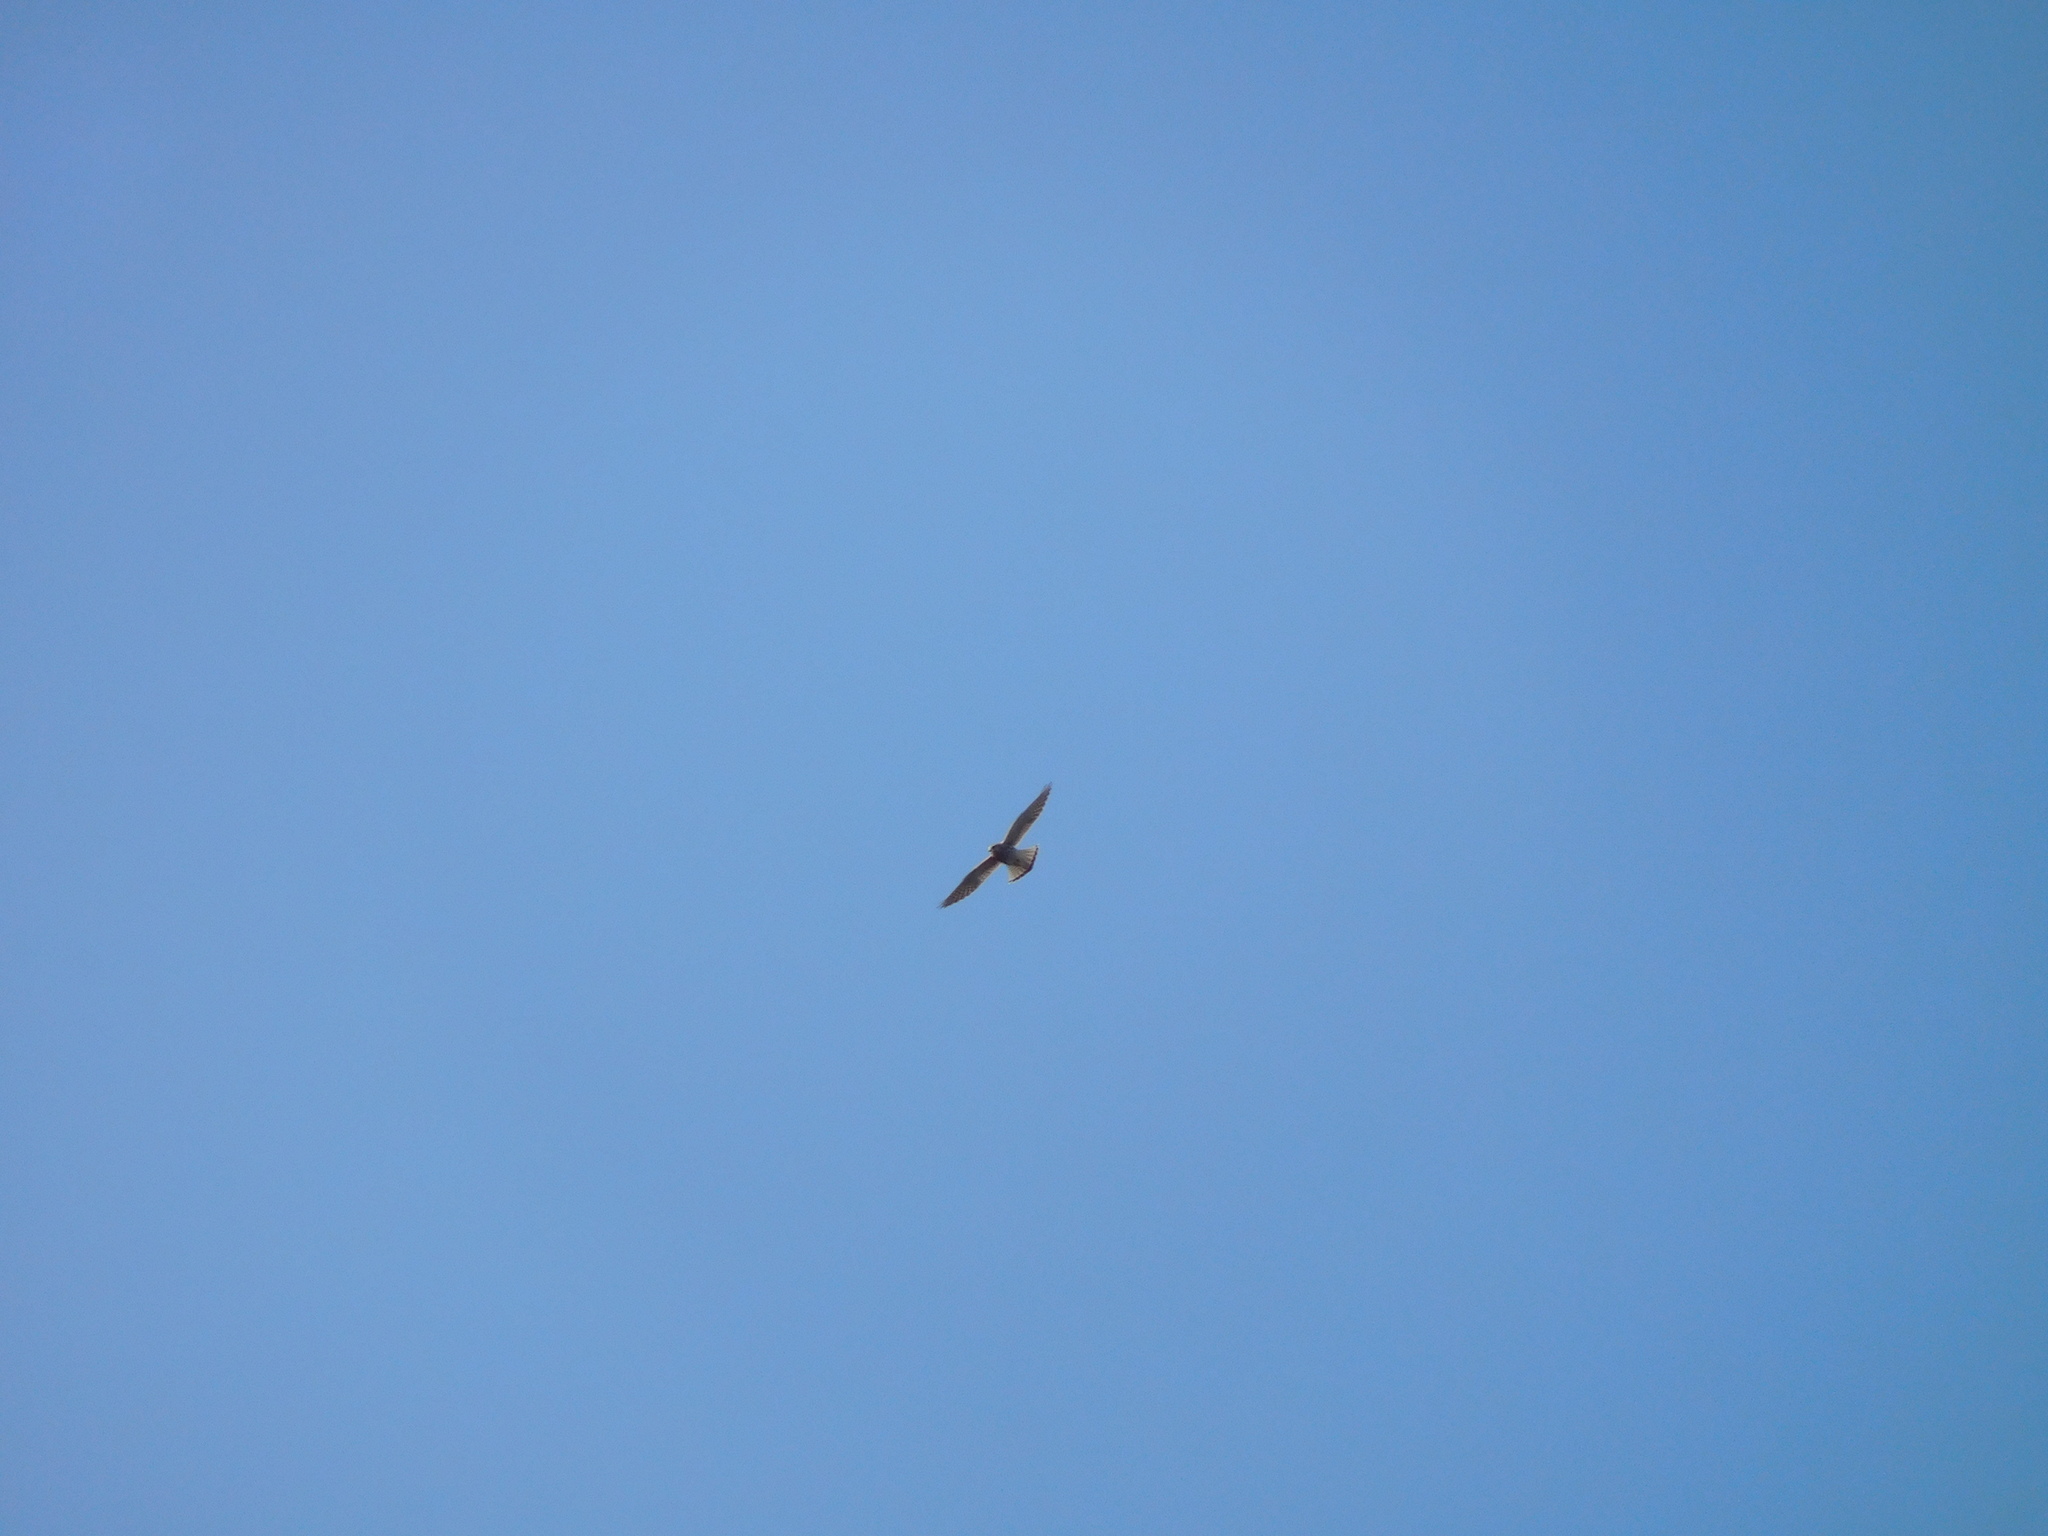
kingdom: Animalia
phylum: Chordata
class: Aves
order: Falconiformes
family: Falconidae
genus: Falco
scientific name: Falco tinnunculus
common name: Common kestrel
